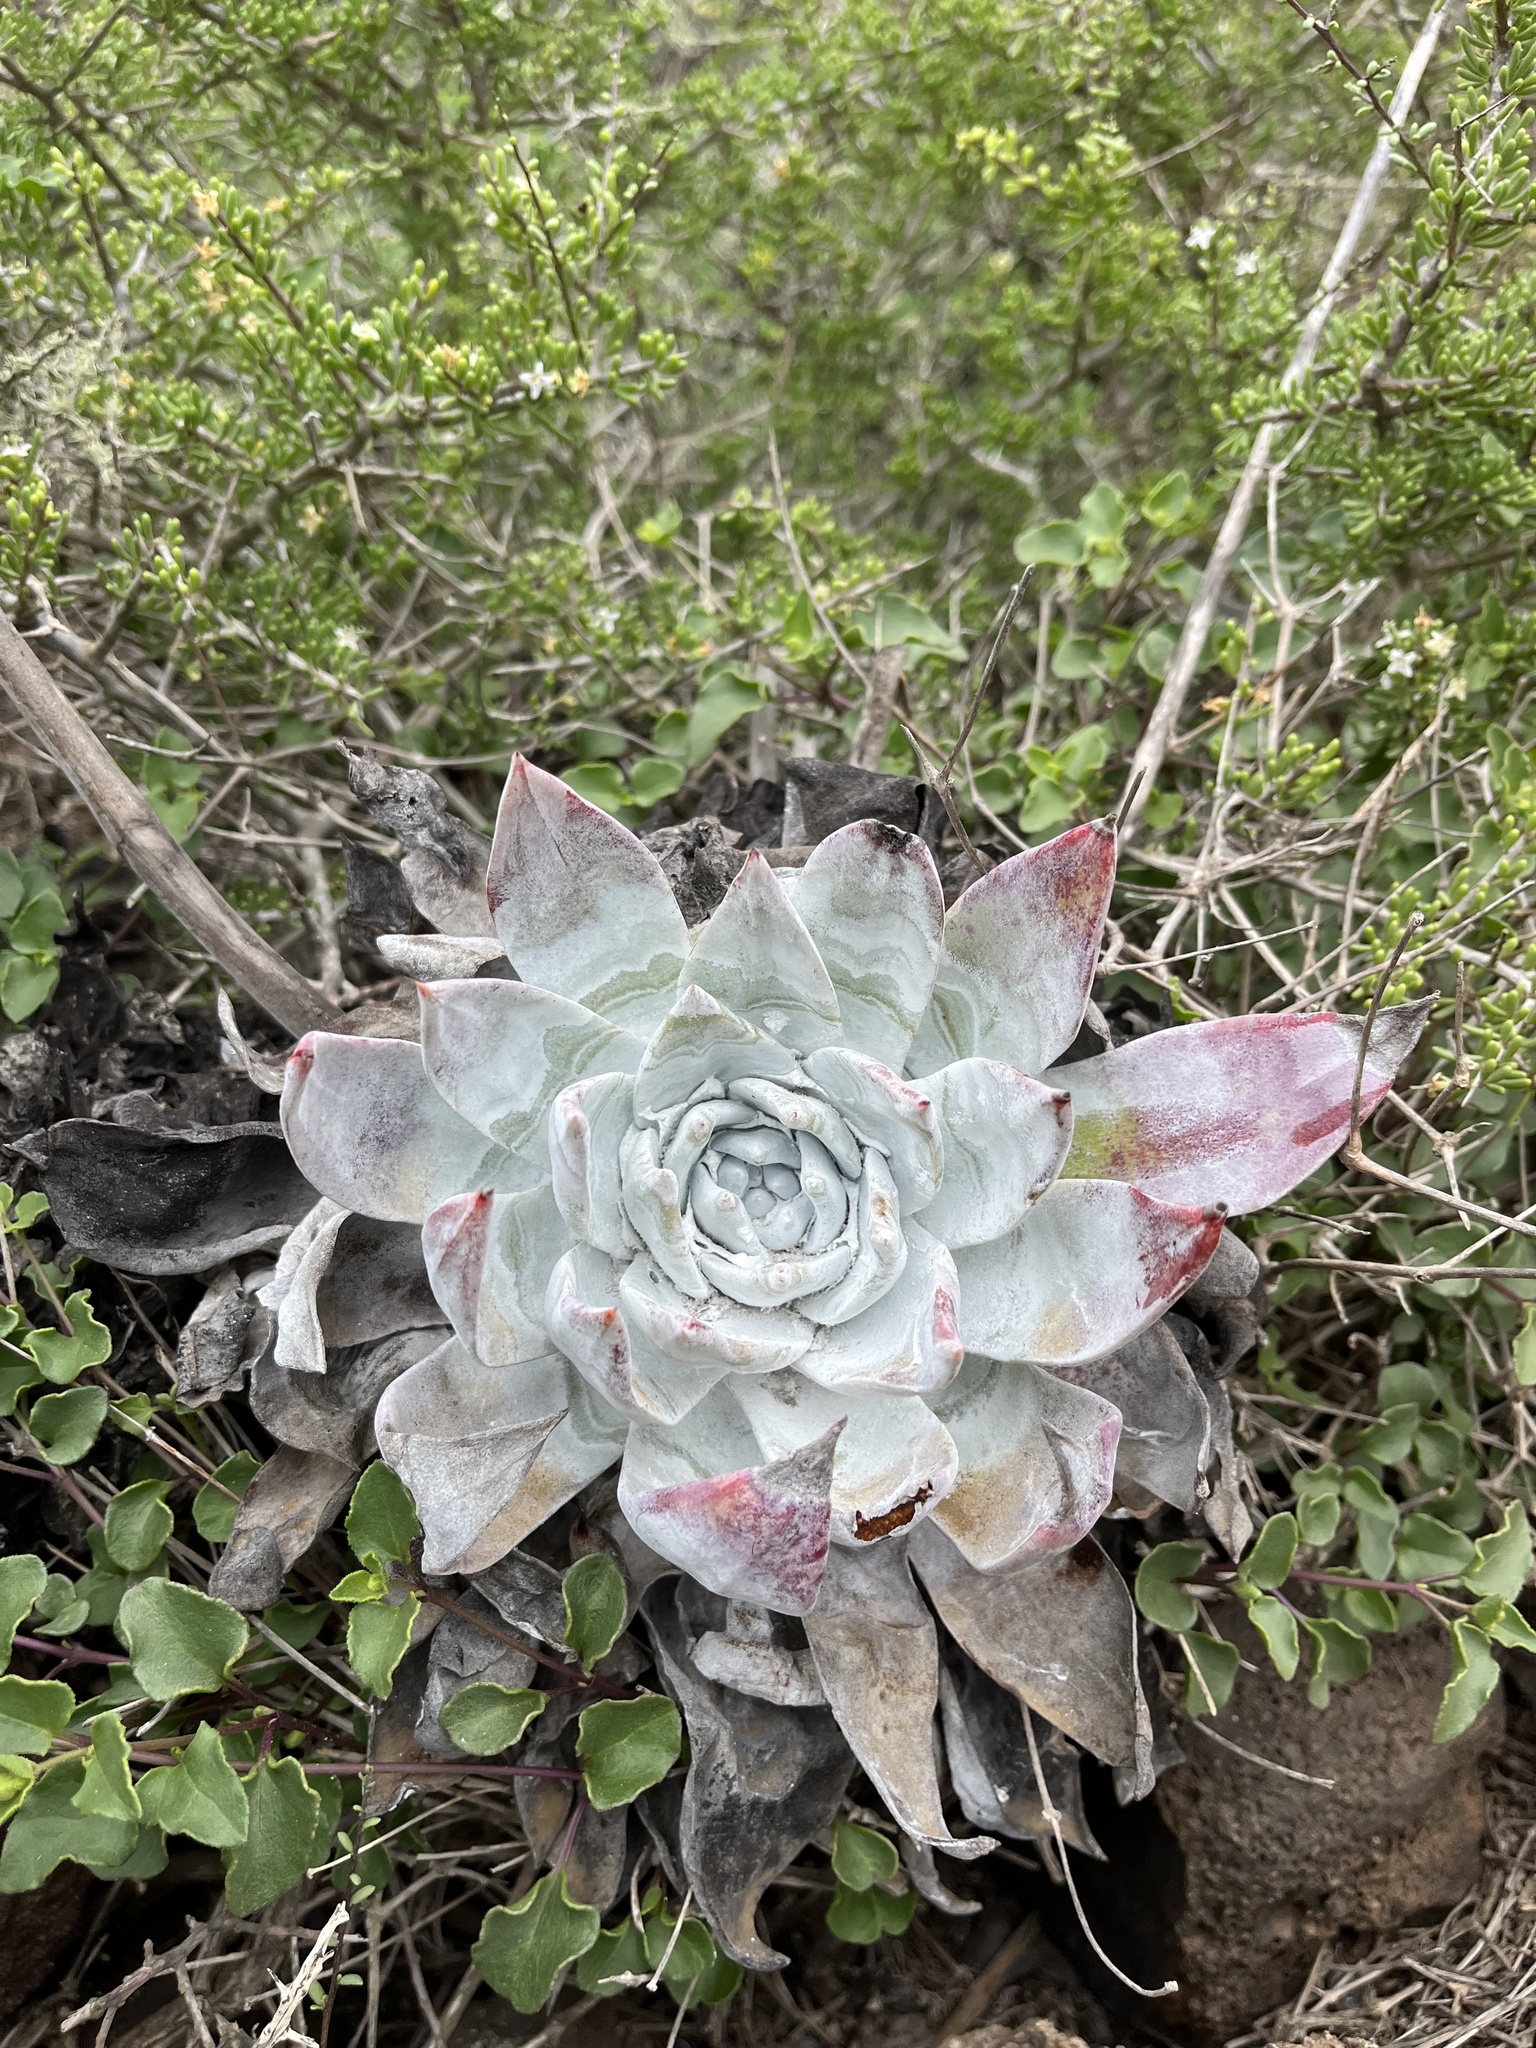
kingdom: Plantae
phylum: Tracheophyta
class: Magnoliopsida
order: Saxifragales
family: Crassulaceae
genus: Dudleya
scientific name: Dudleya anthonyi
